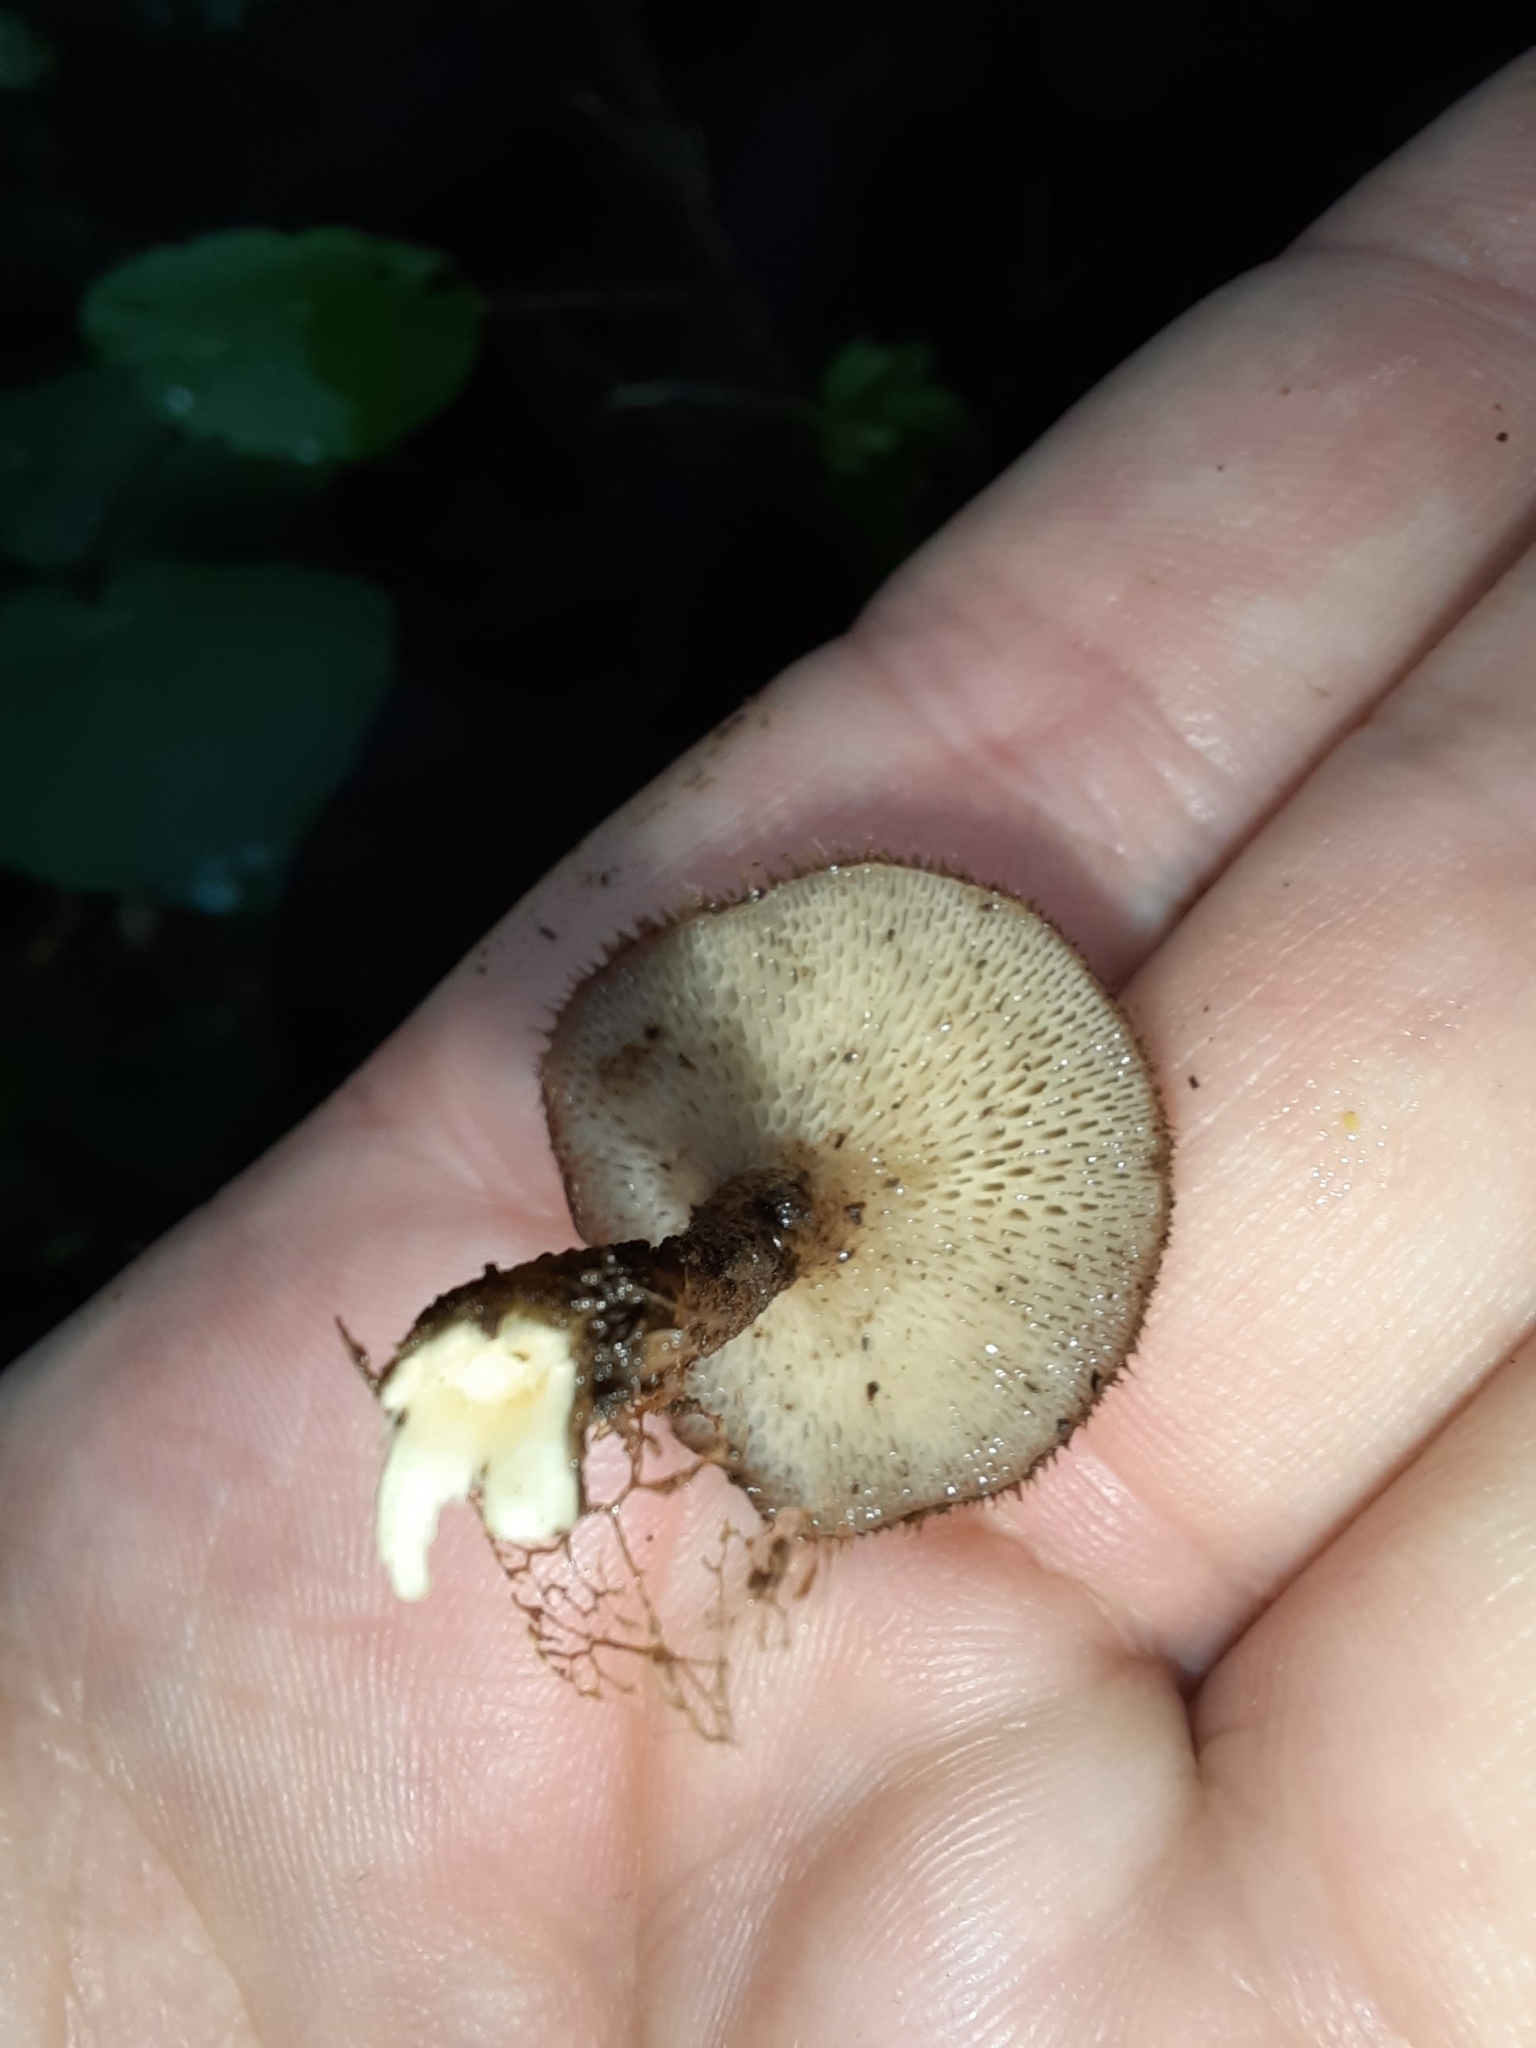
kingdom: Fungi
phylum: Basidiomycota
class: Agaricomycetes
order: Polyporales
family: Polyporaceae
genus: Lentinus
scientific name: Lentinus arcularius
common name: Spring polypore
